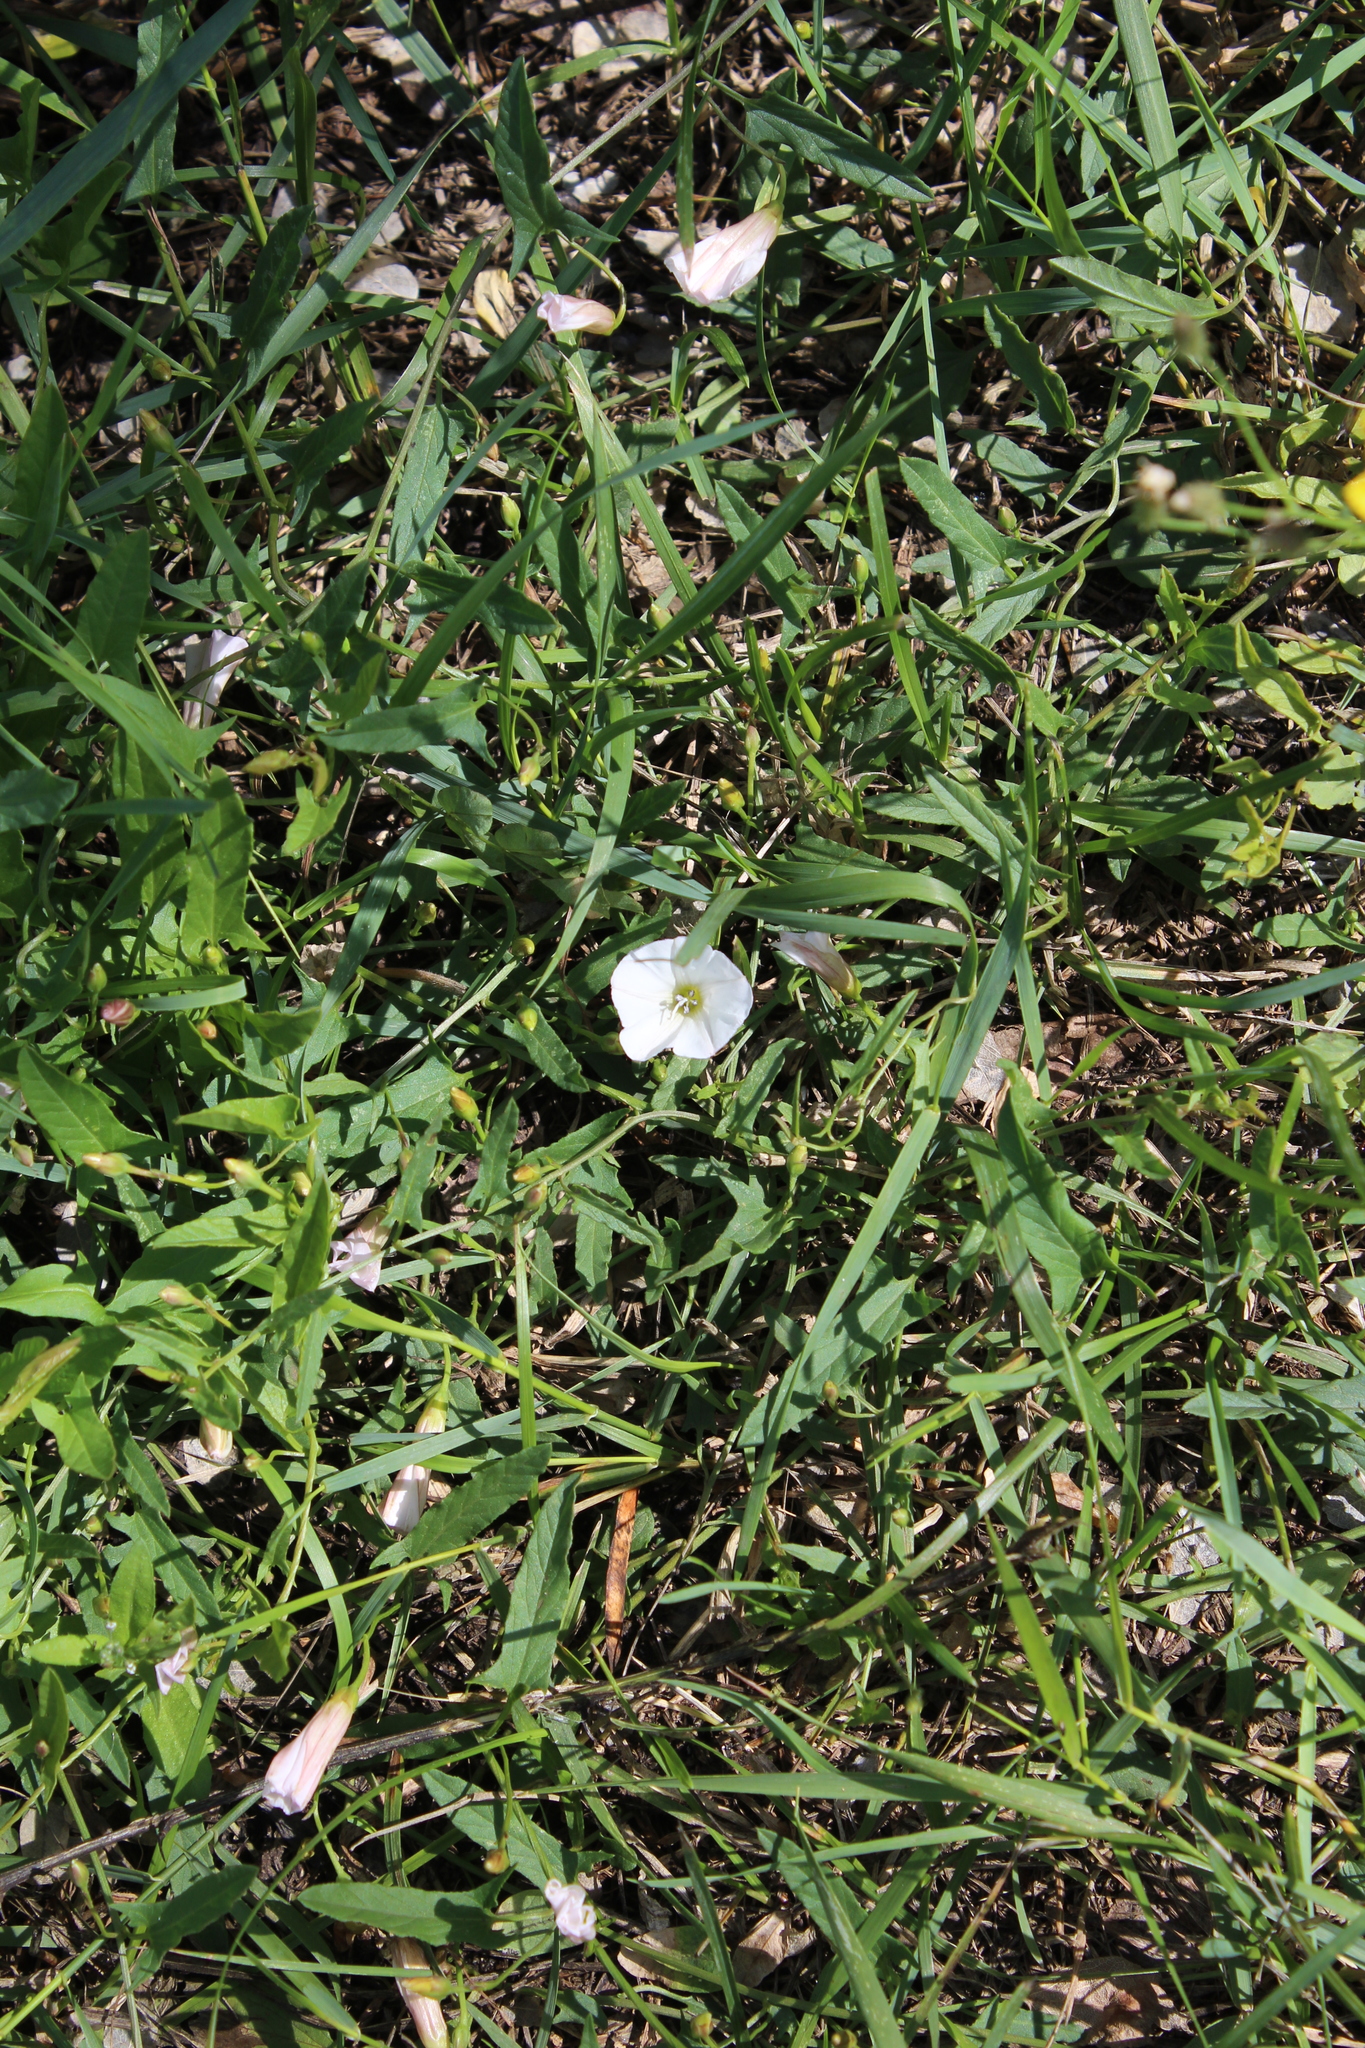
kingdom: Plantae
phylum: Tracheophyta
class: Magnoliopsida
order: Solanales
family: Convolvulaceae
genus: Convolvulus
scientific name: Convolvulus arvensis
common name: Field bindweed
